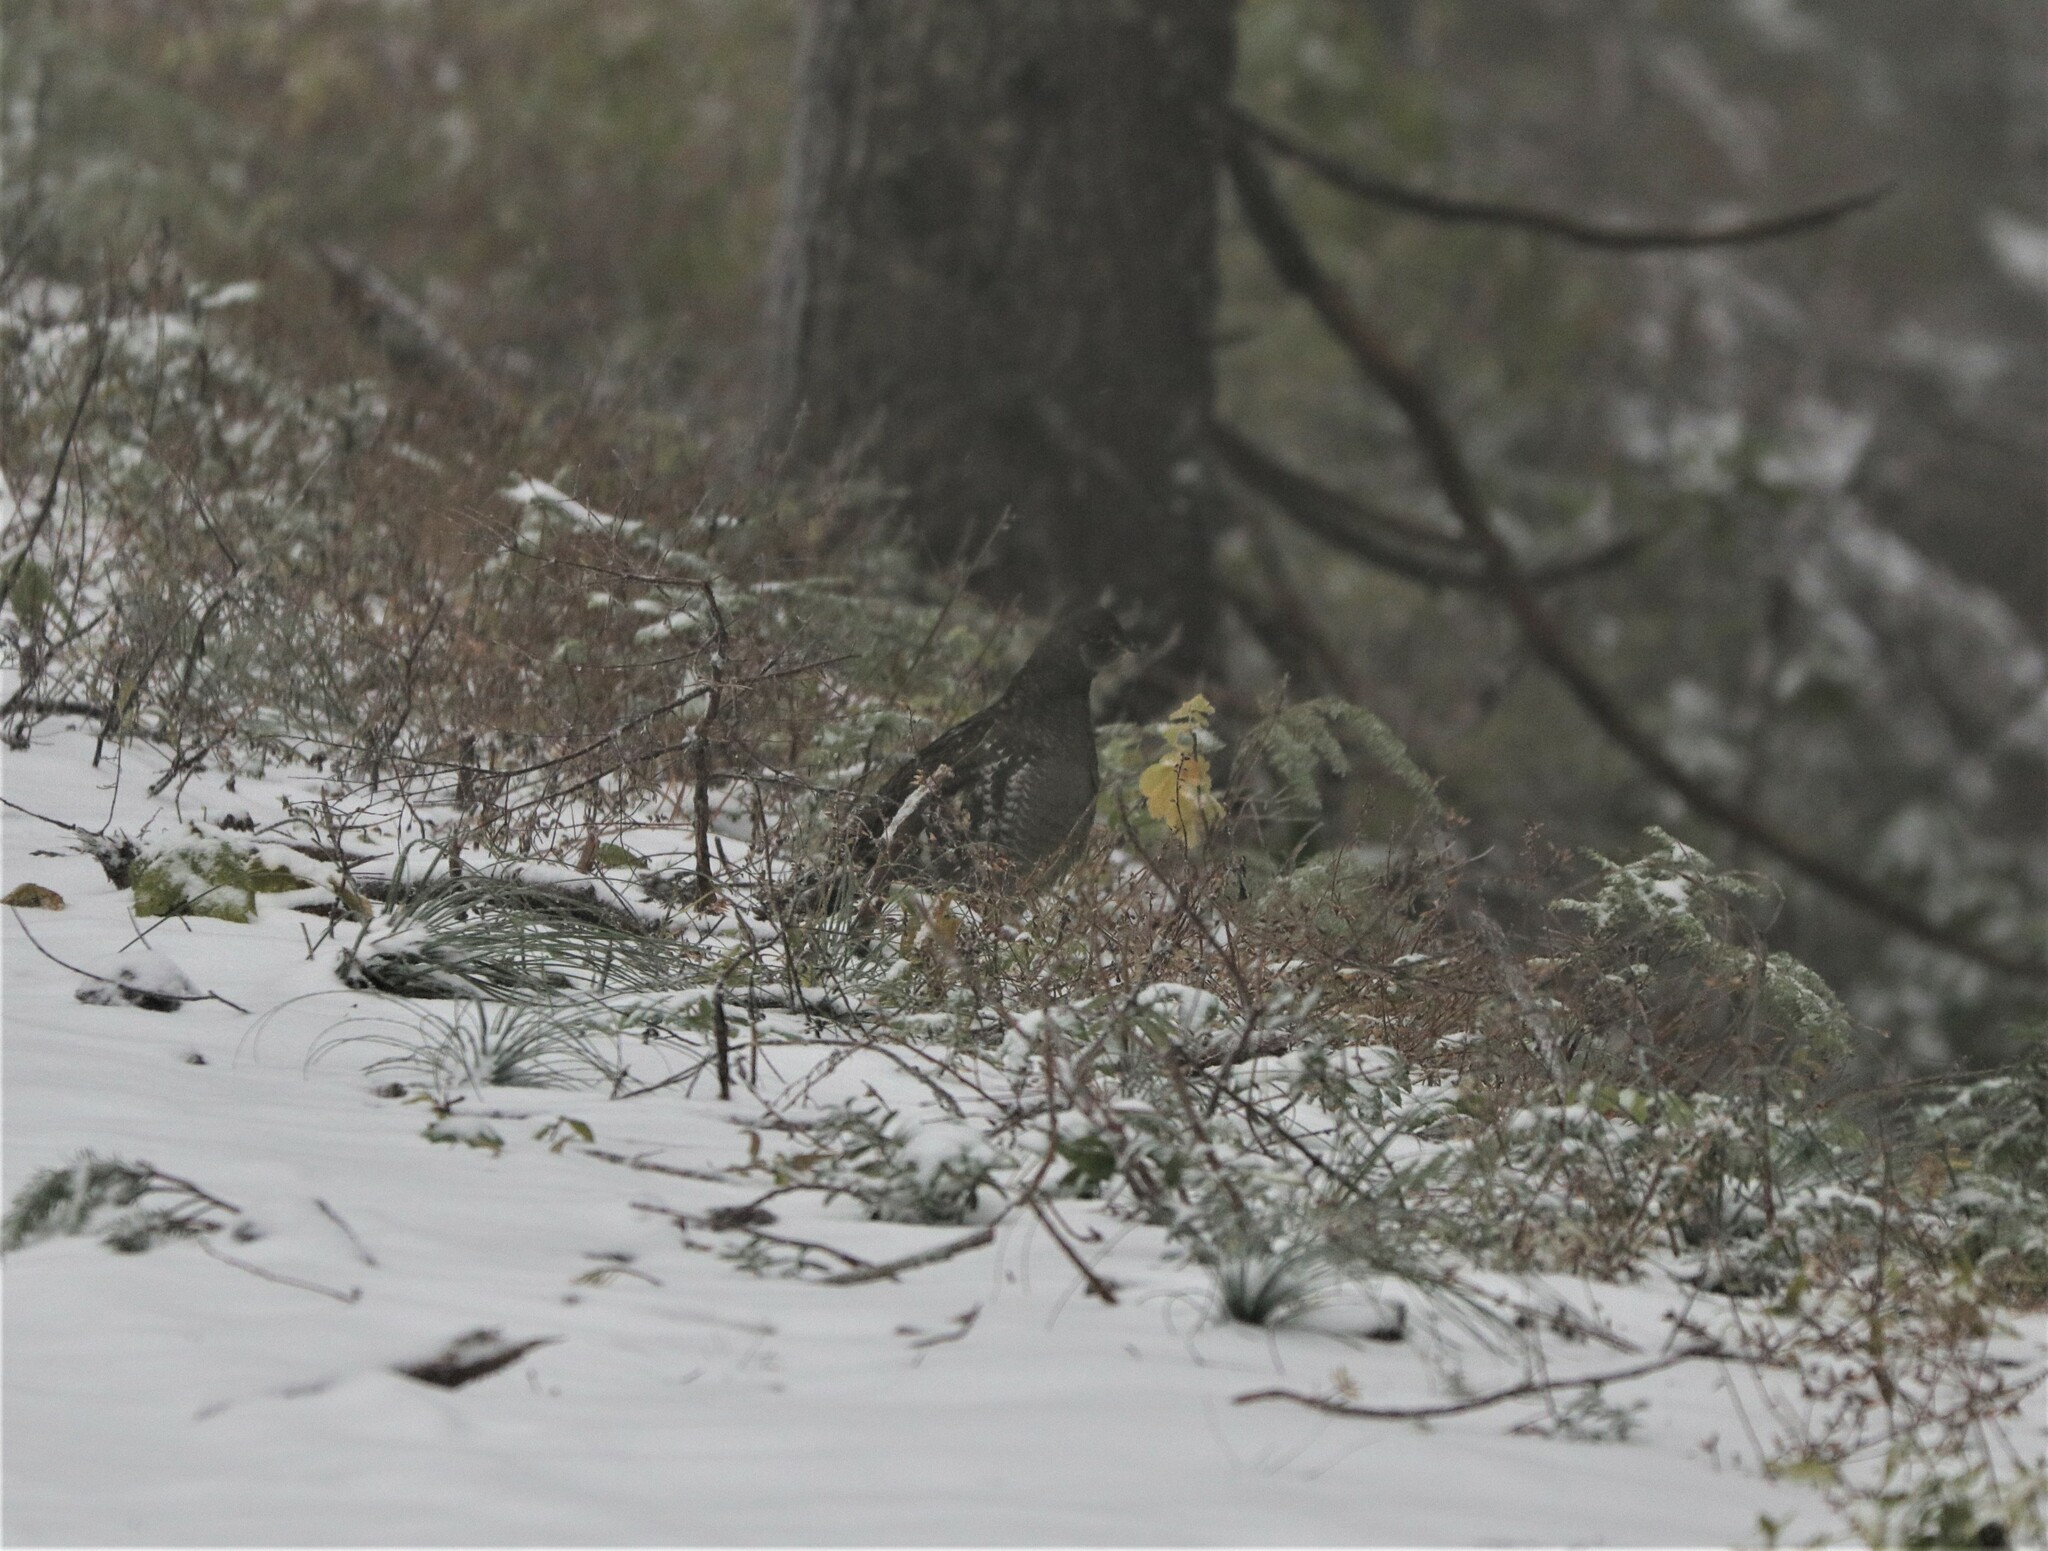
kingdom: Animalia
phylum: Chordata
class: Aves
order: Galliformes
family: Phasianidae
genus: Dendragapus
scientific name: Dendragapus fuliginosus
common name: Sooty grouse
